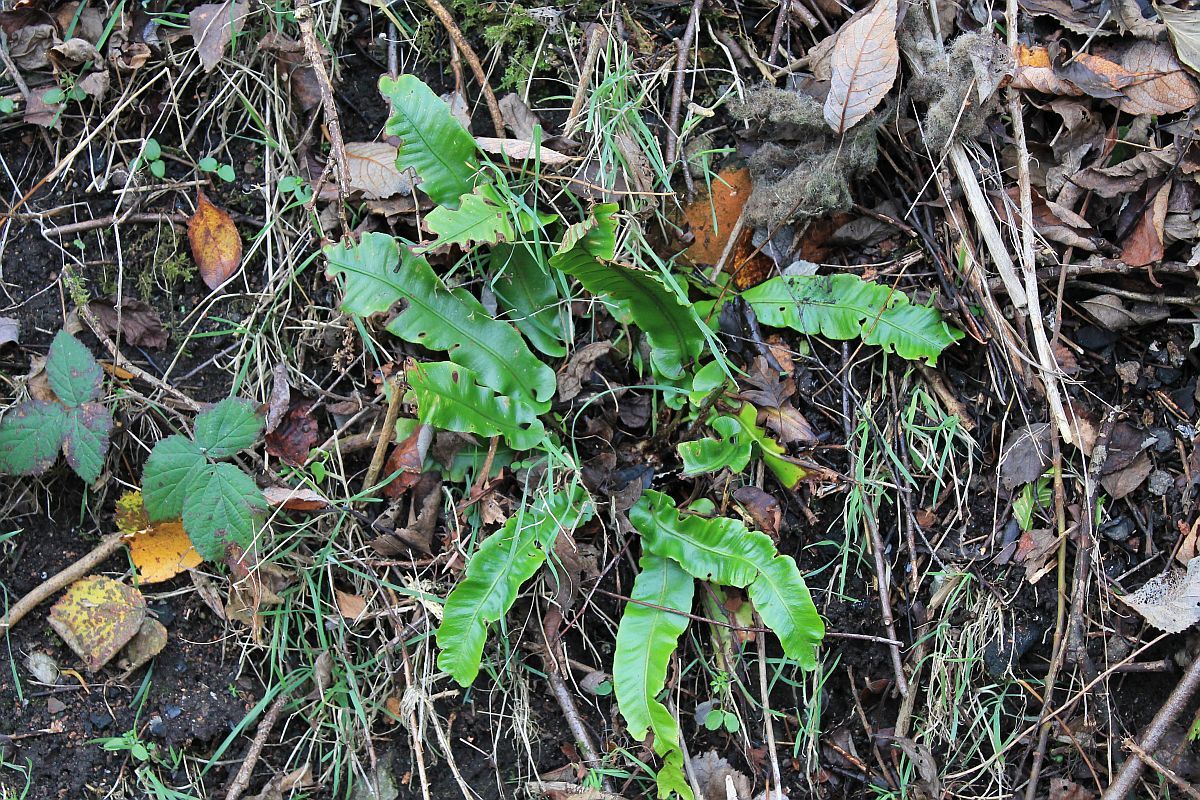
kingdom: Plantae
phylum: Tracheophyta
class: Polypodiopsida
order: Polypodiales
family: Aspleniaceae
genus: Asplenium
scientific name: Asplenium scolopendrium
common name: Hart's-tongue fern
